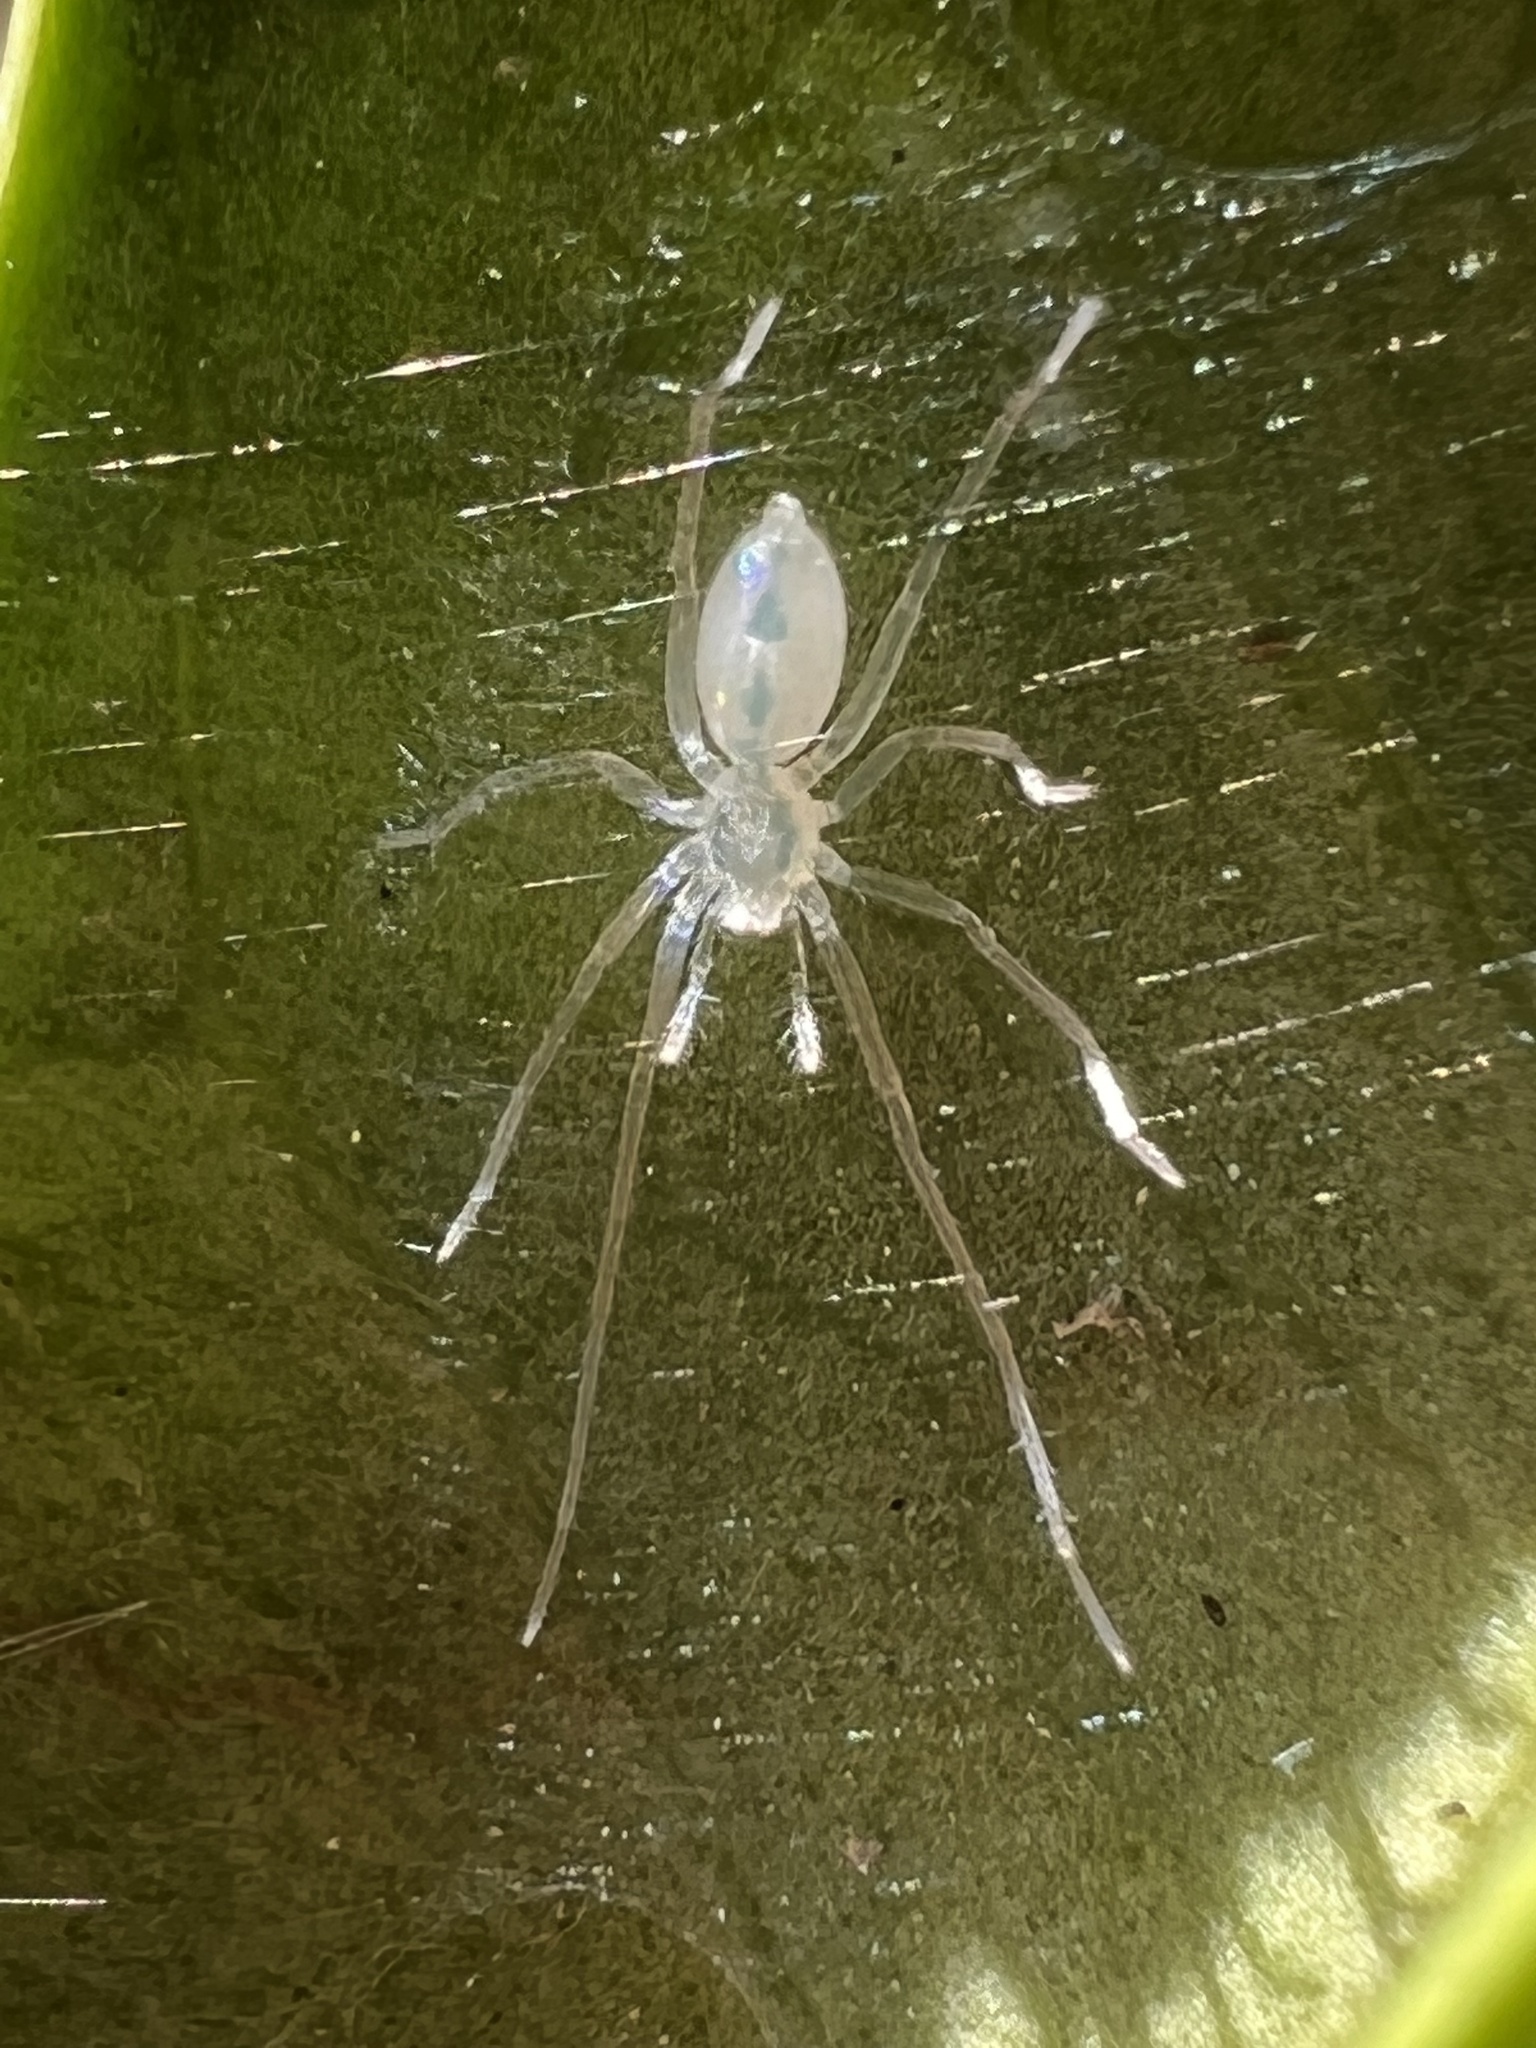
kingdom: Animalia
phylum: Arthropoda
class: Arachnida
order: Araneae
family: Anyphaenidae
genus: Wulfila
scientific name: Wulfila albens
